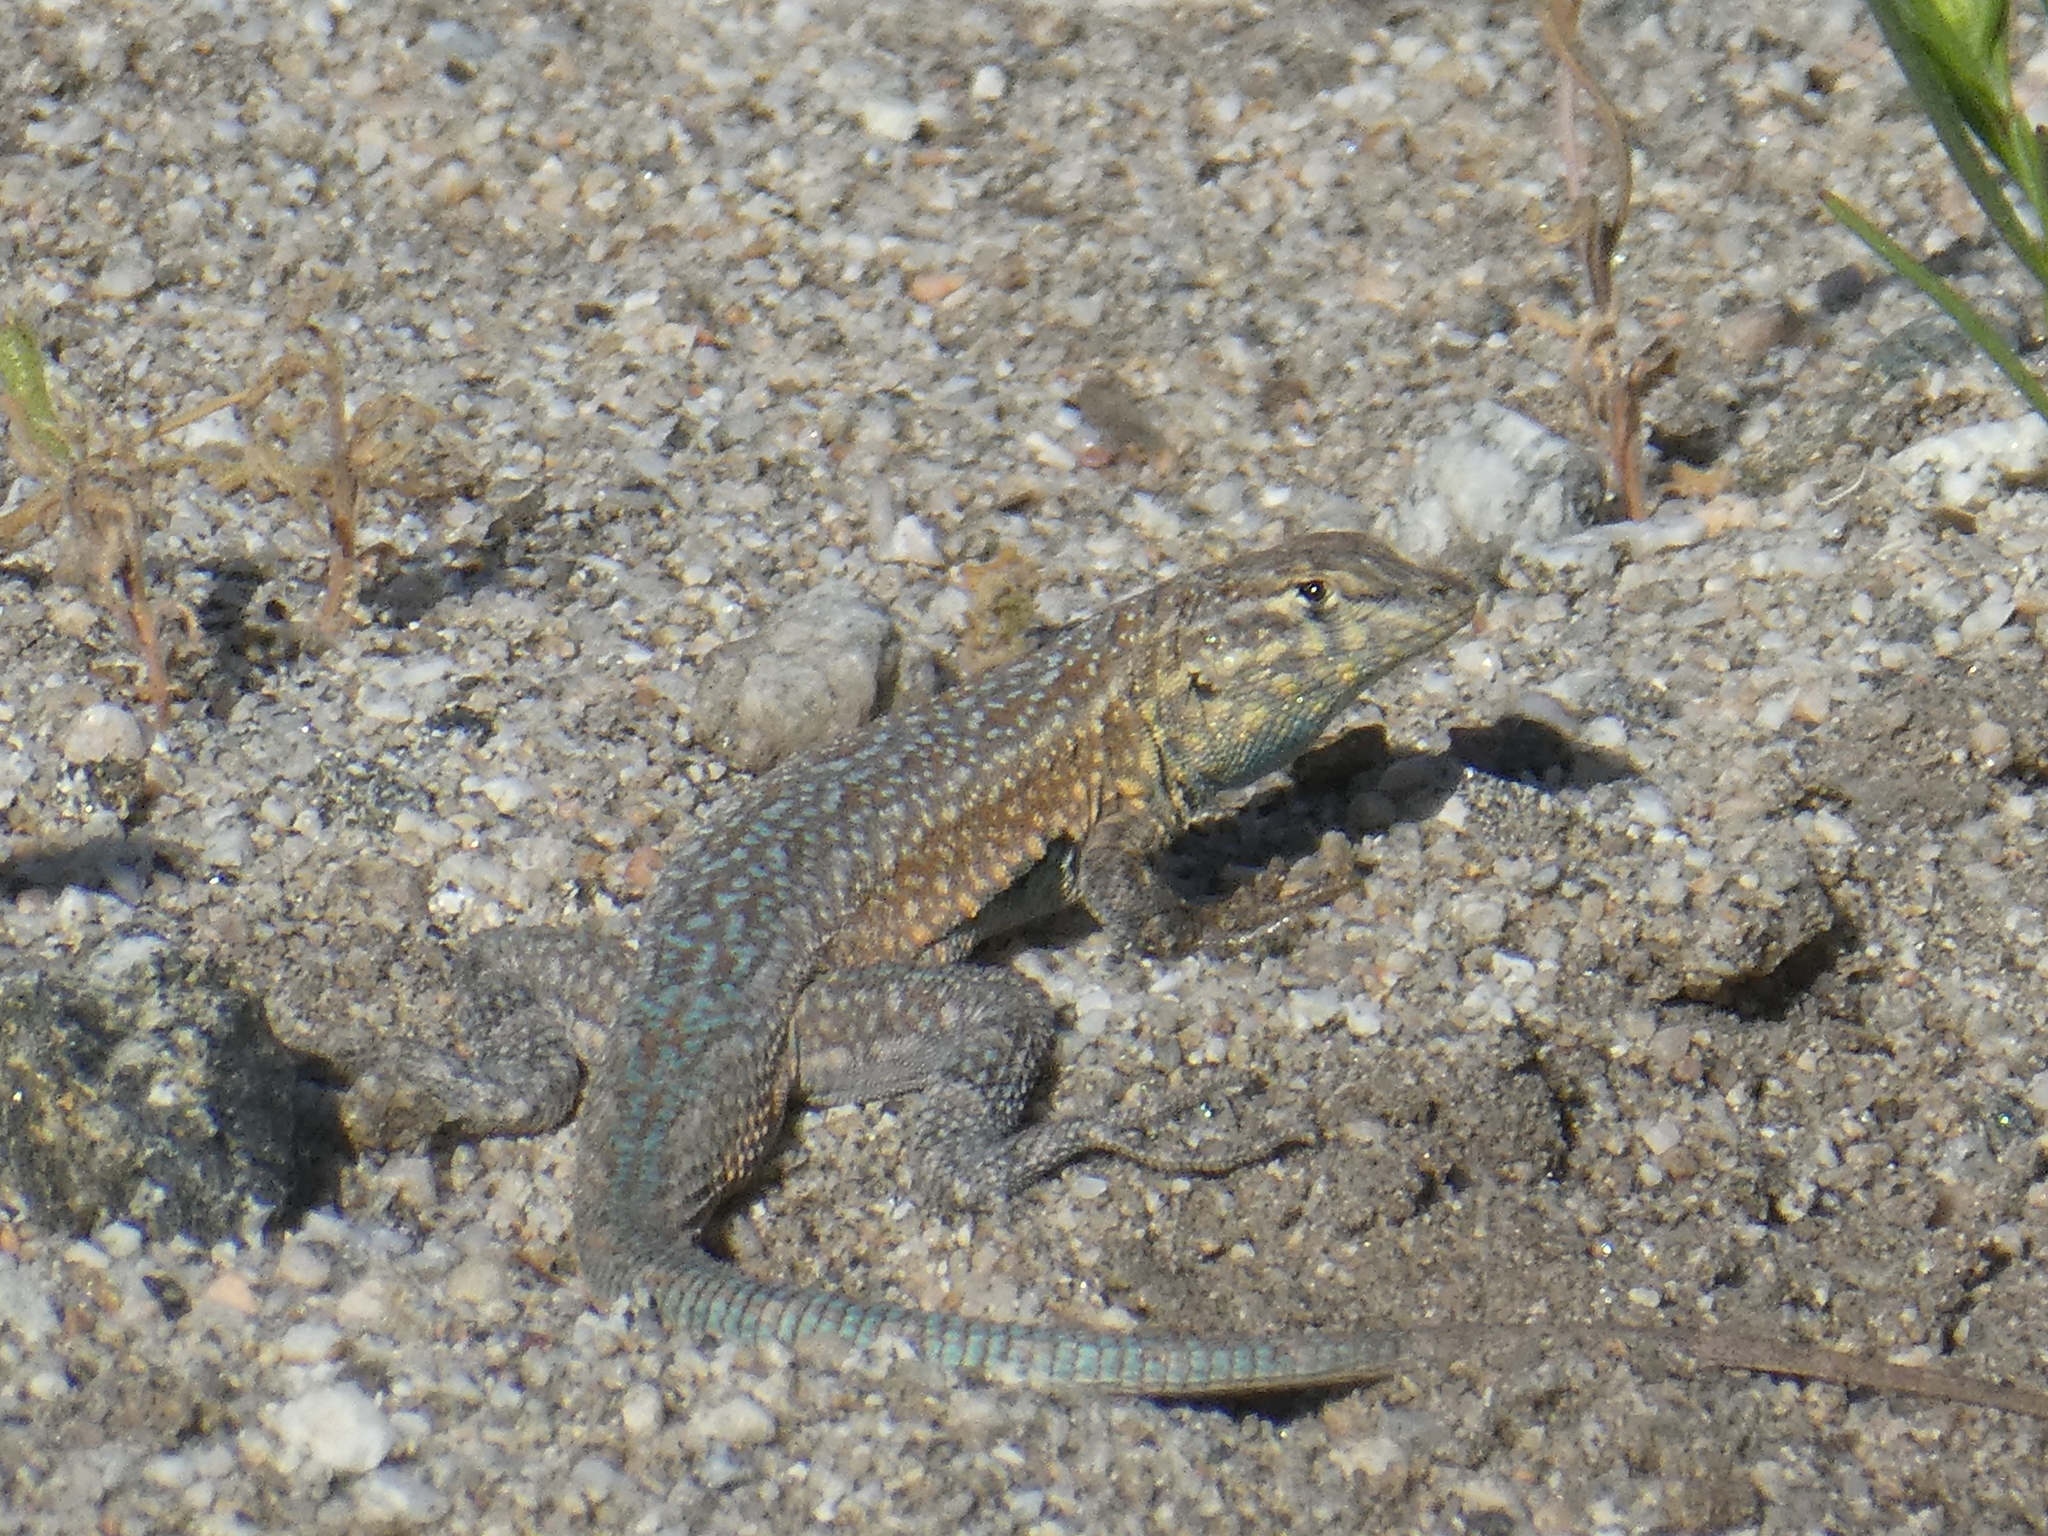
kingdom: Animalia
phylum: Chordata
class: Squamata
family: Phrynosomatidae
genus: Uta
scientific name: Uta stansburiana
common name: Side-blotched lizard
